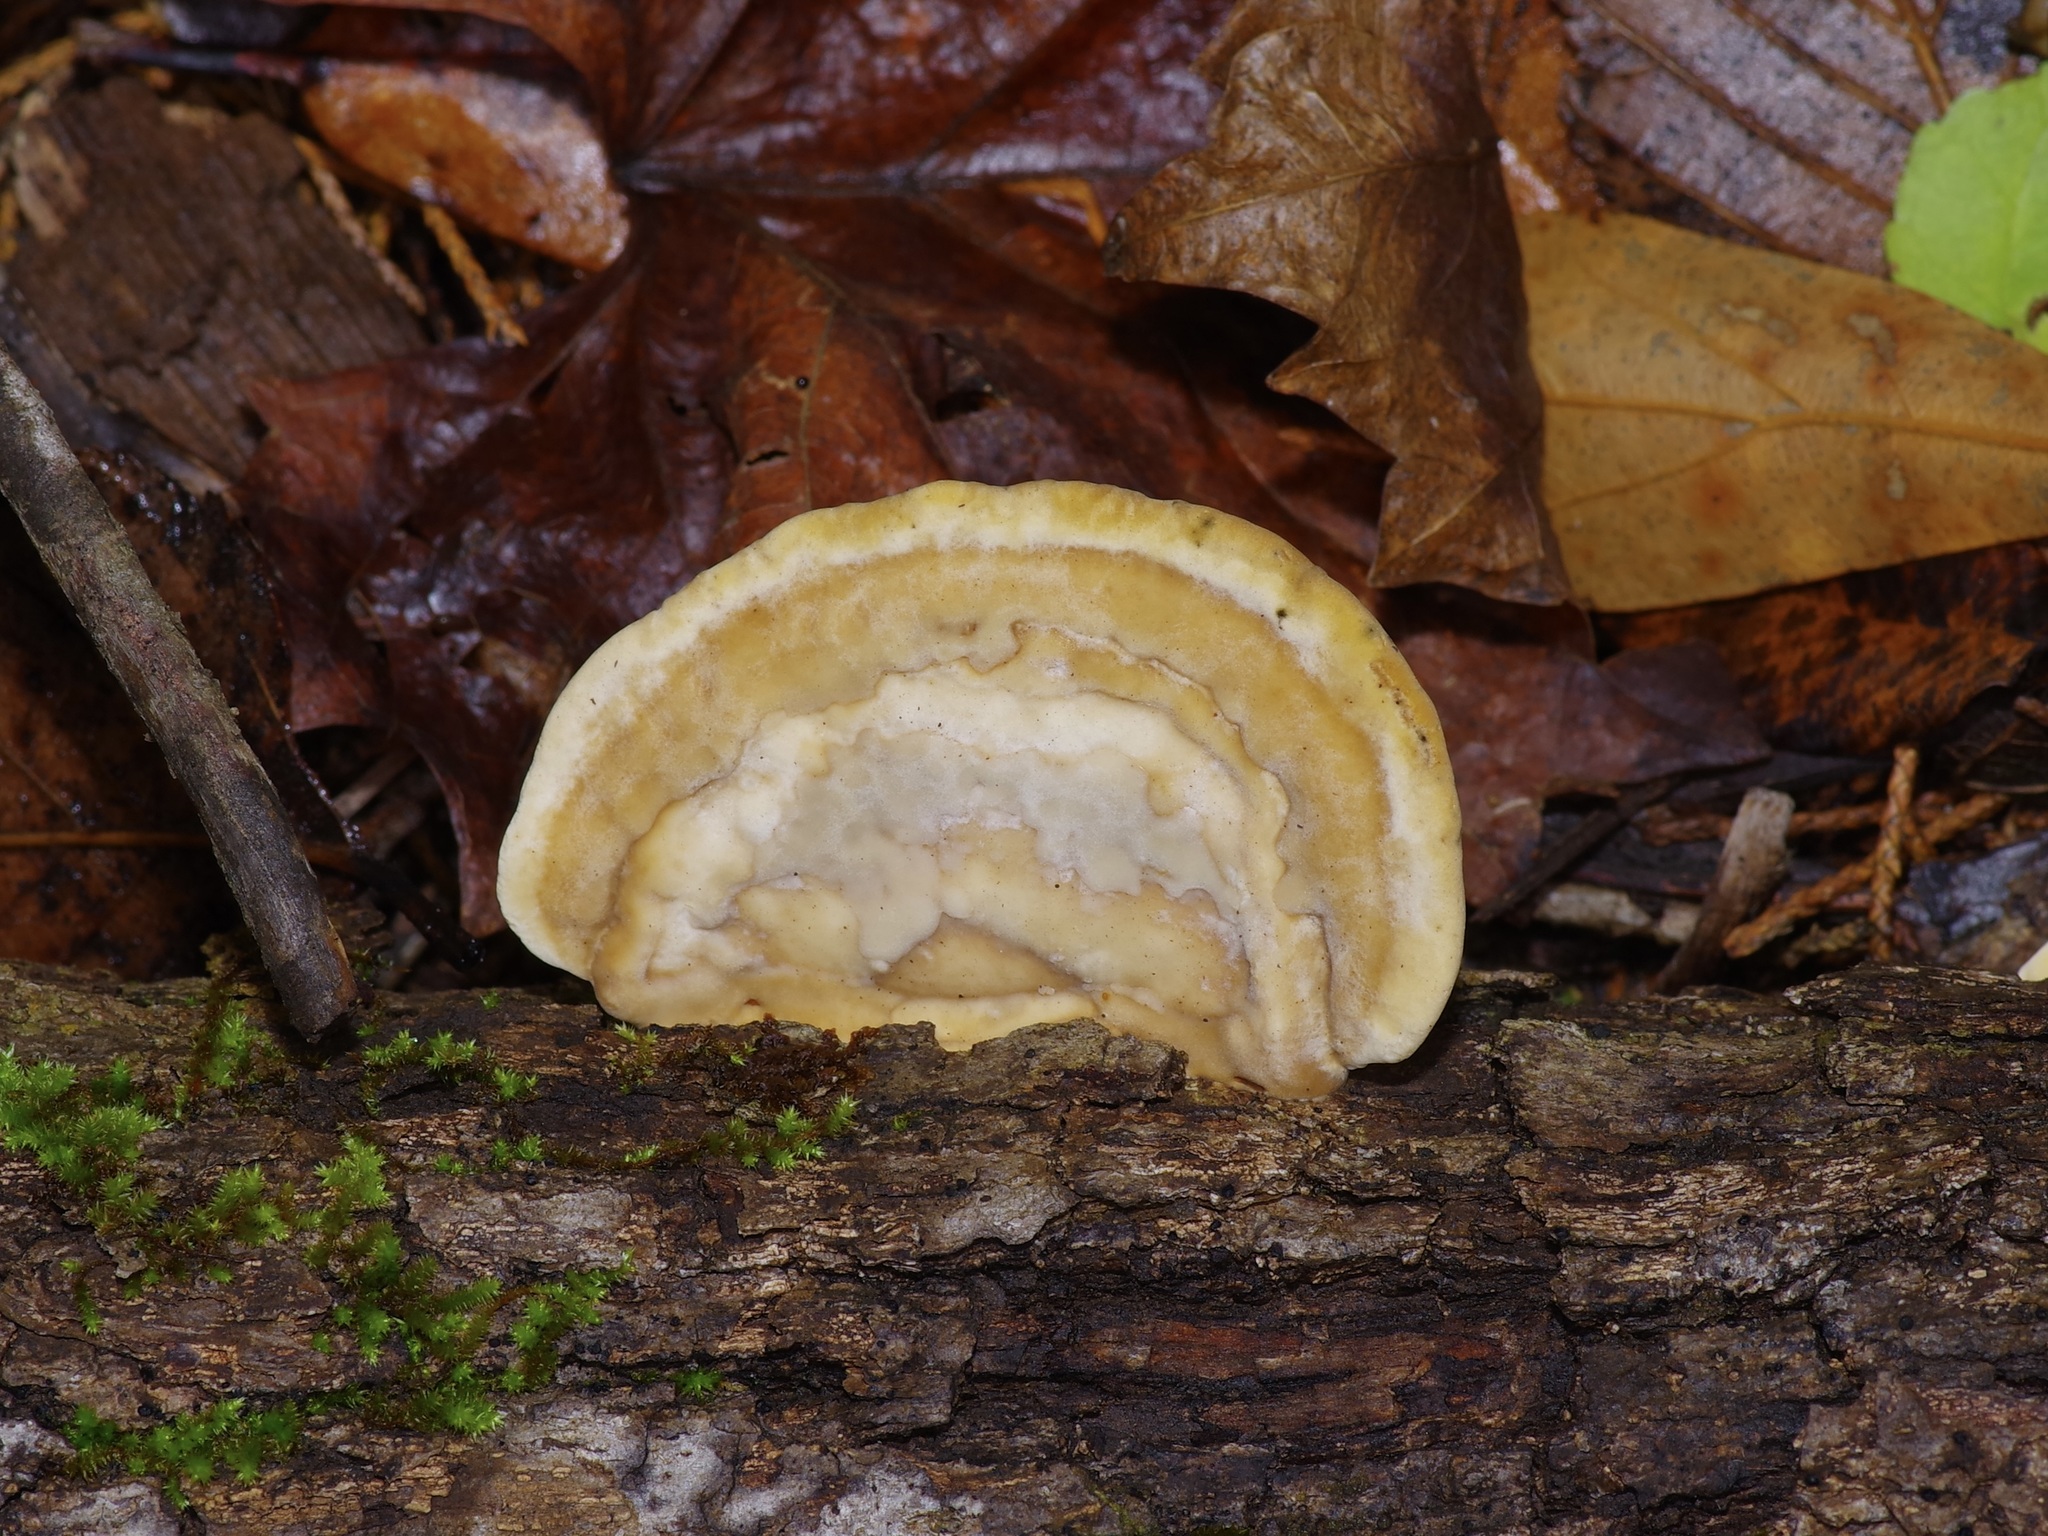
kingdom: Fungi
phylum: Basidiomycota
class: Agaricomycetes
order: Polyporales
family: Polyporaceae
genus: Trametes
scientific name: Trametes lactinea
